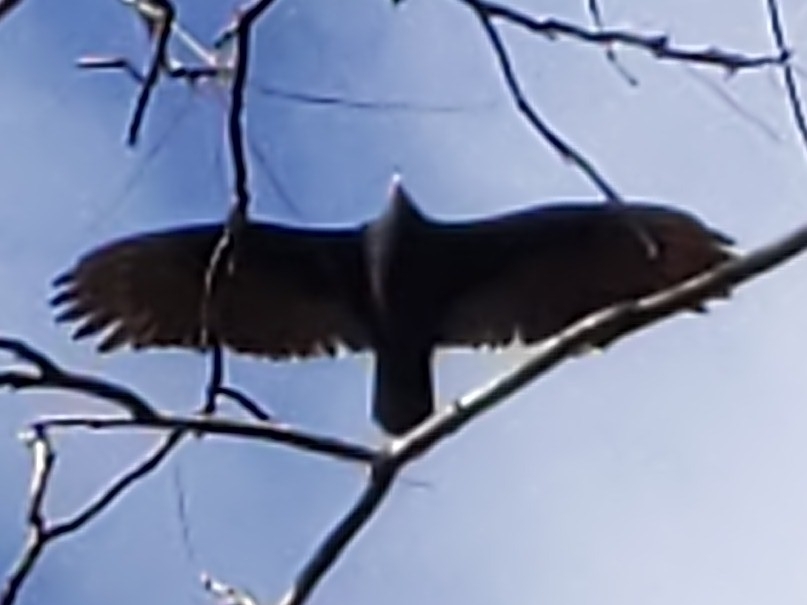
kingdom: Animalia
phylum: Chordata
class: Aves
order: Accipitriformes
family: Cathartidae
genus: Cathartes
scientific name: Cathartes aura
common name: Turkey vulture
